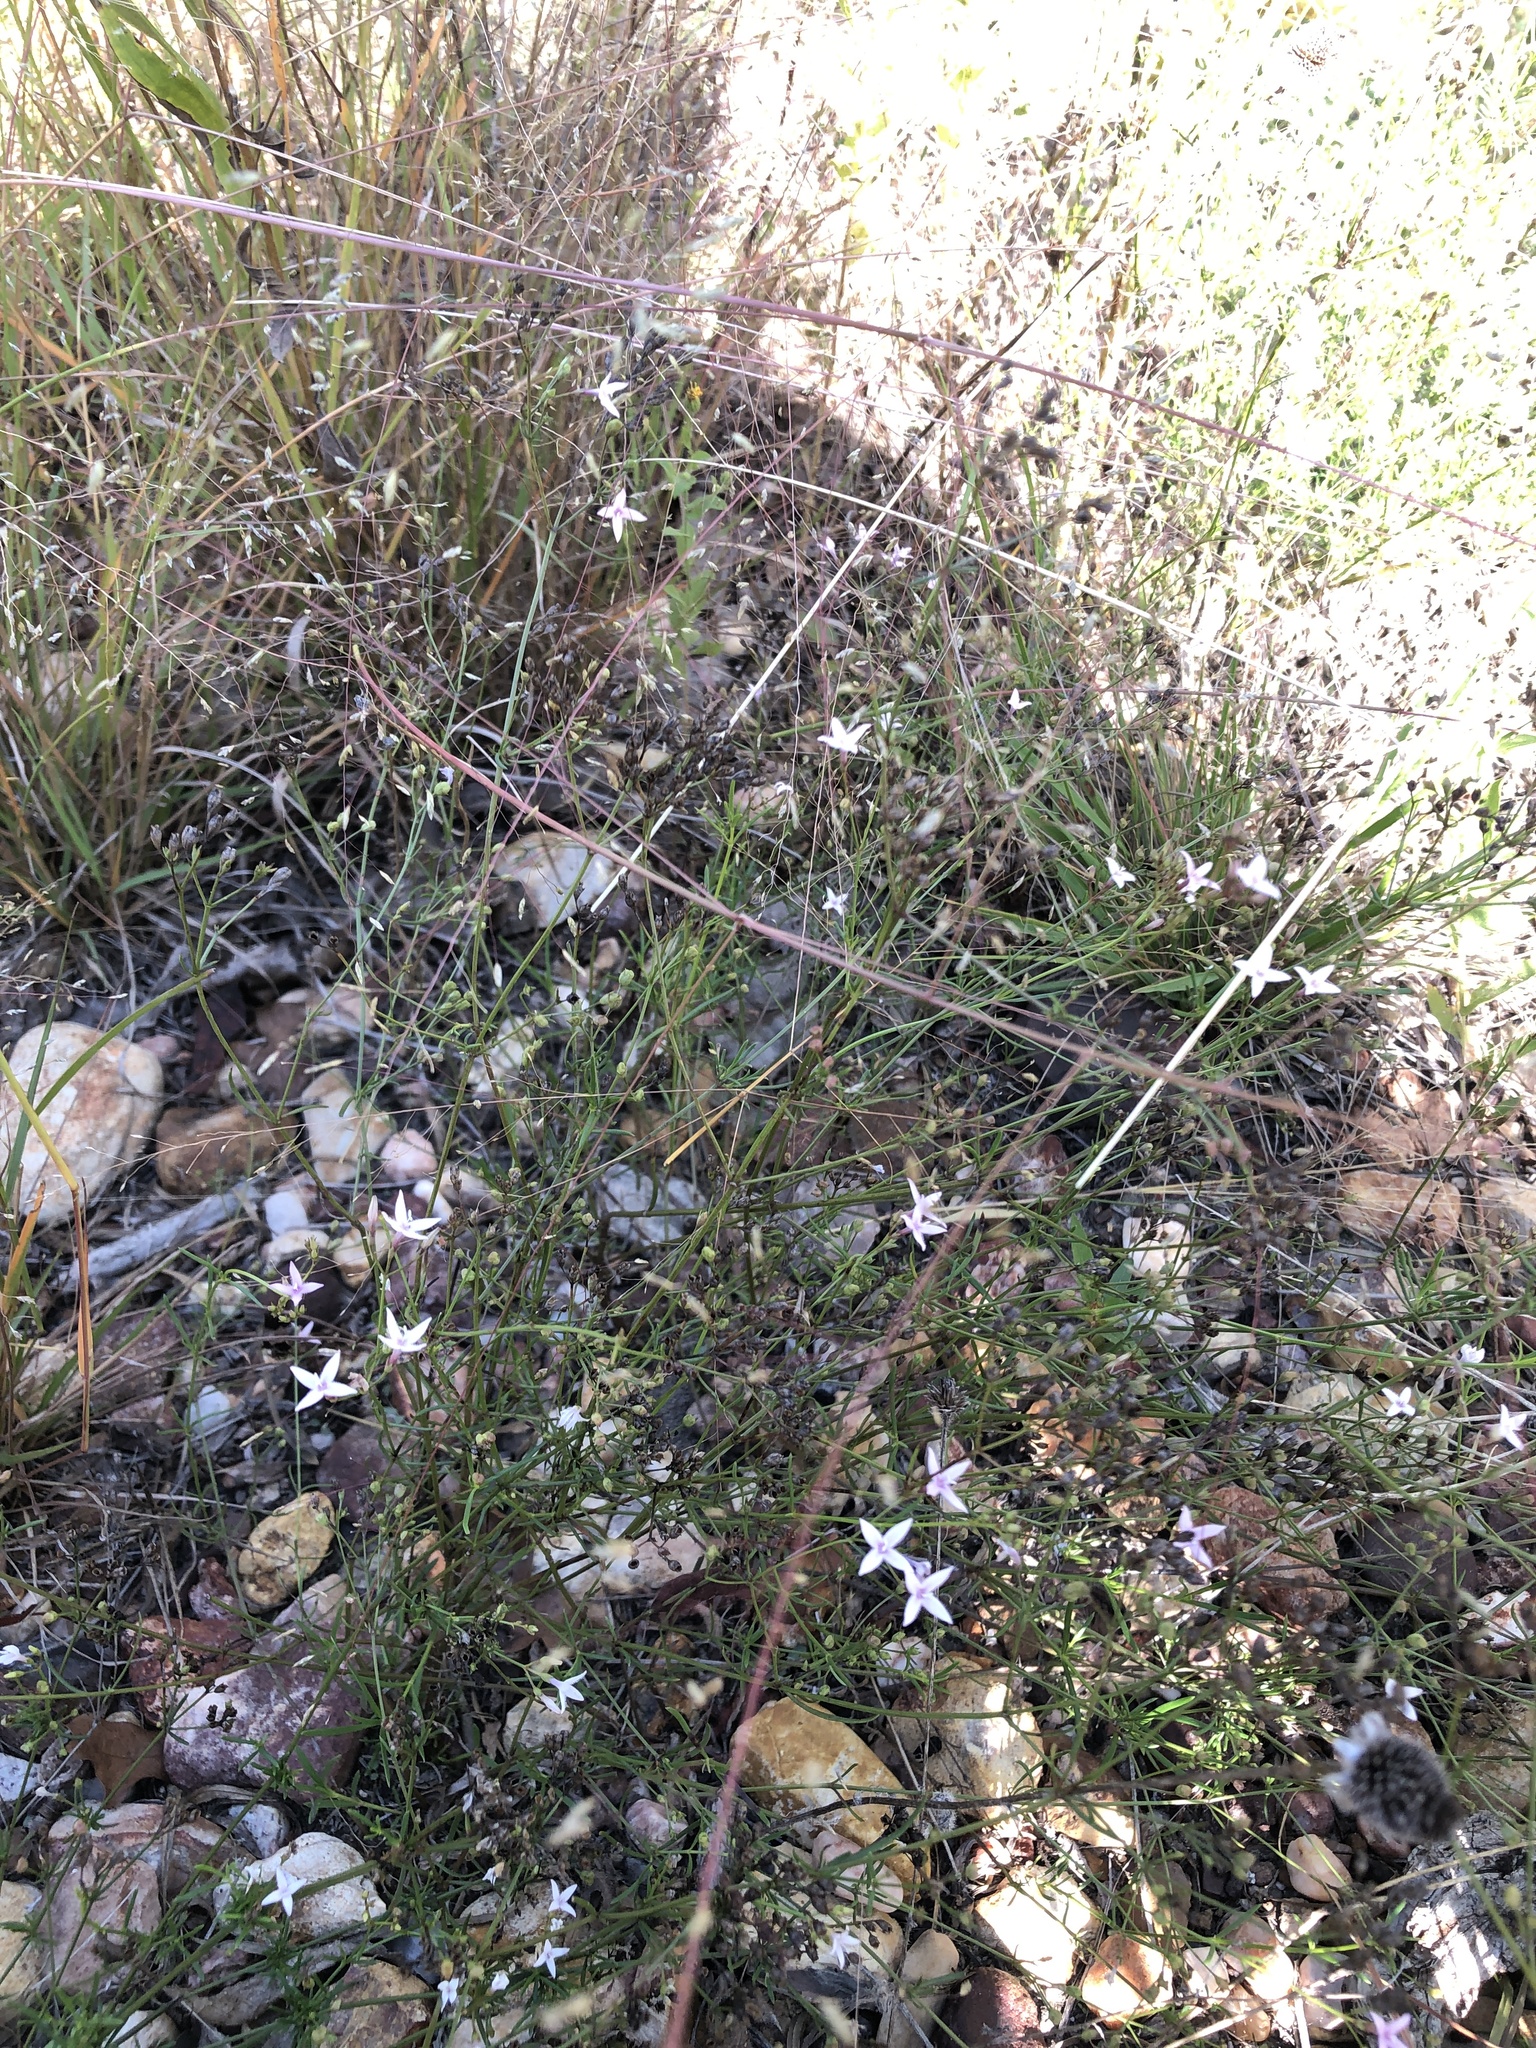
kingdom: Plantae
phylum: Tracheophyta
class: Magnoliopsida
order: Gentianales
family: Rubiaceae
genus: Stenaria
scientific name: Stenaria nigricans
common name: Diamondflowers
